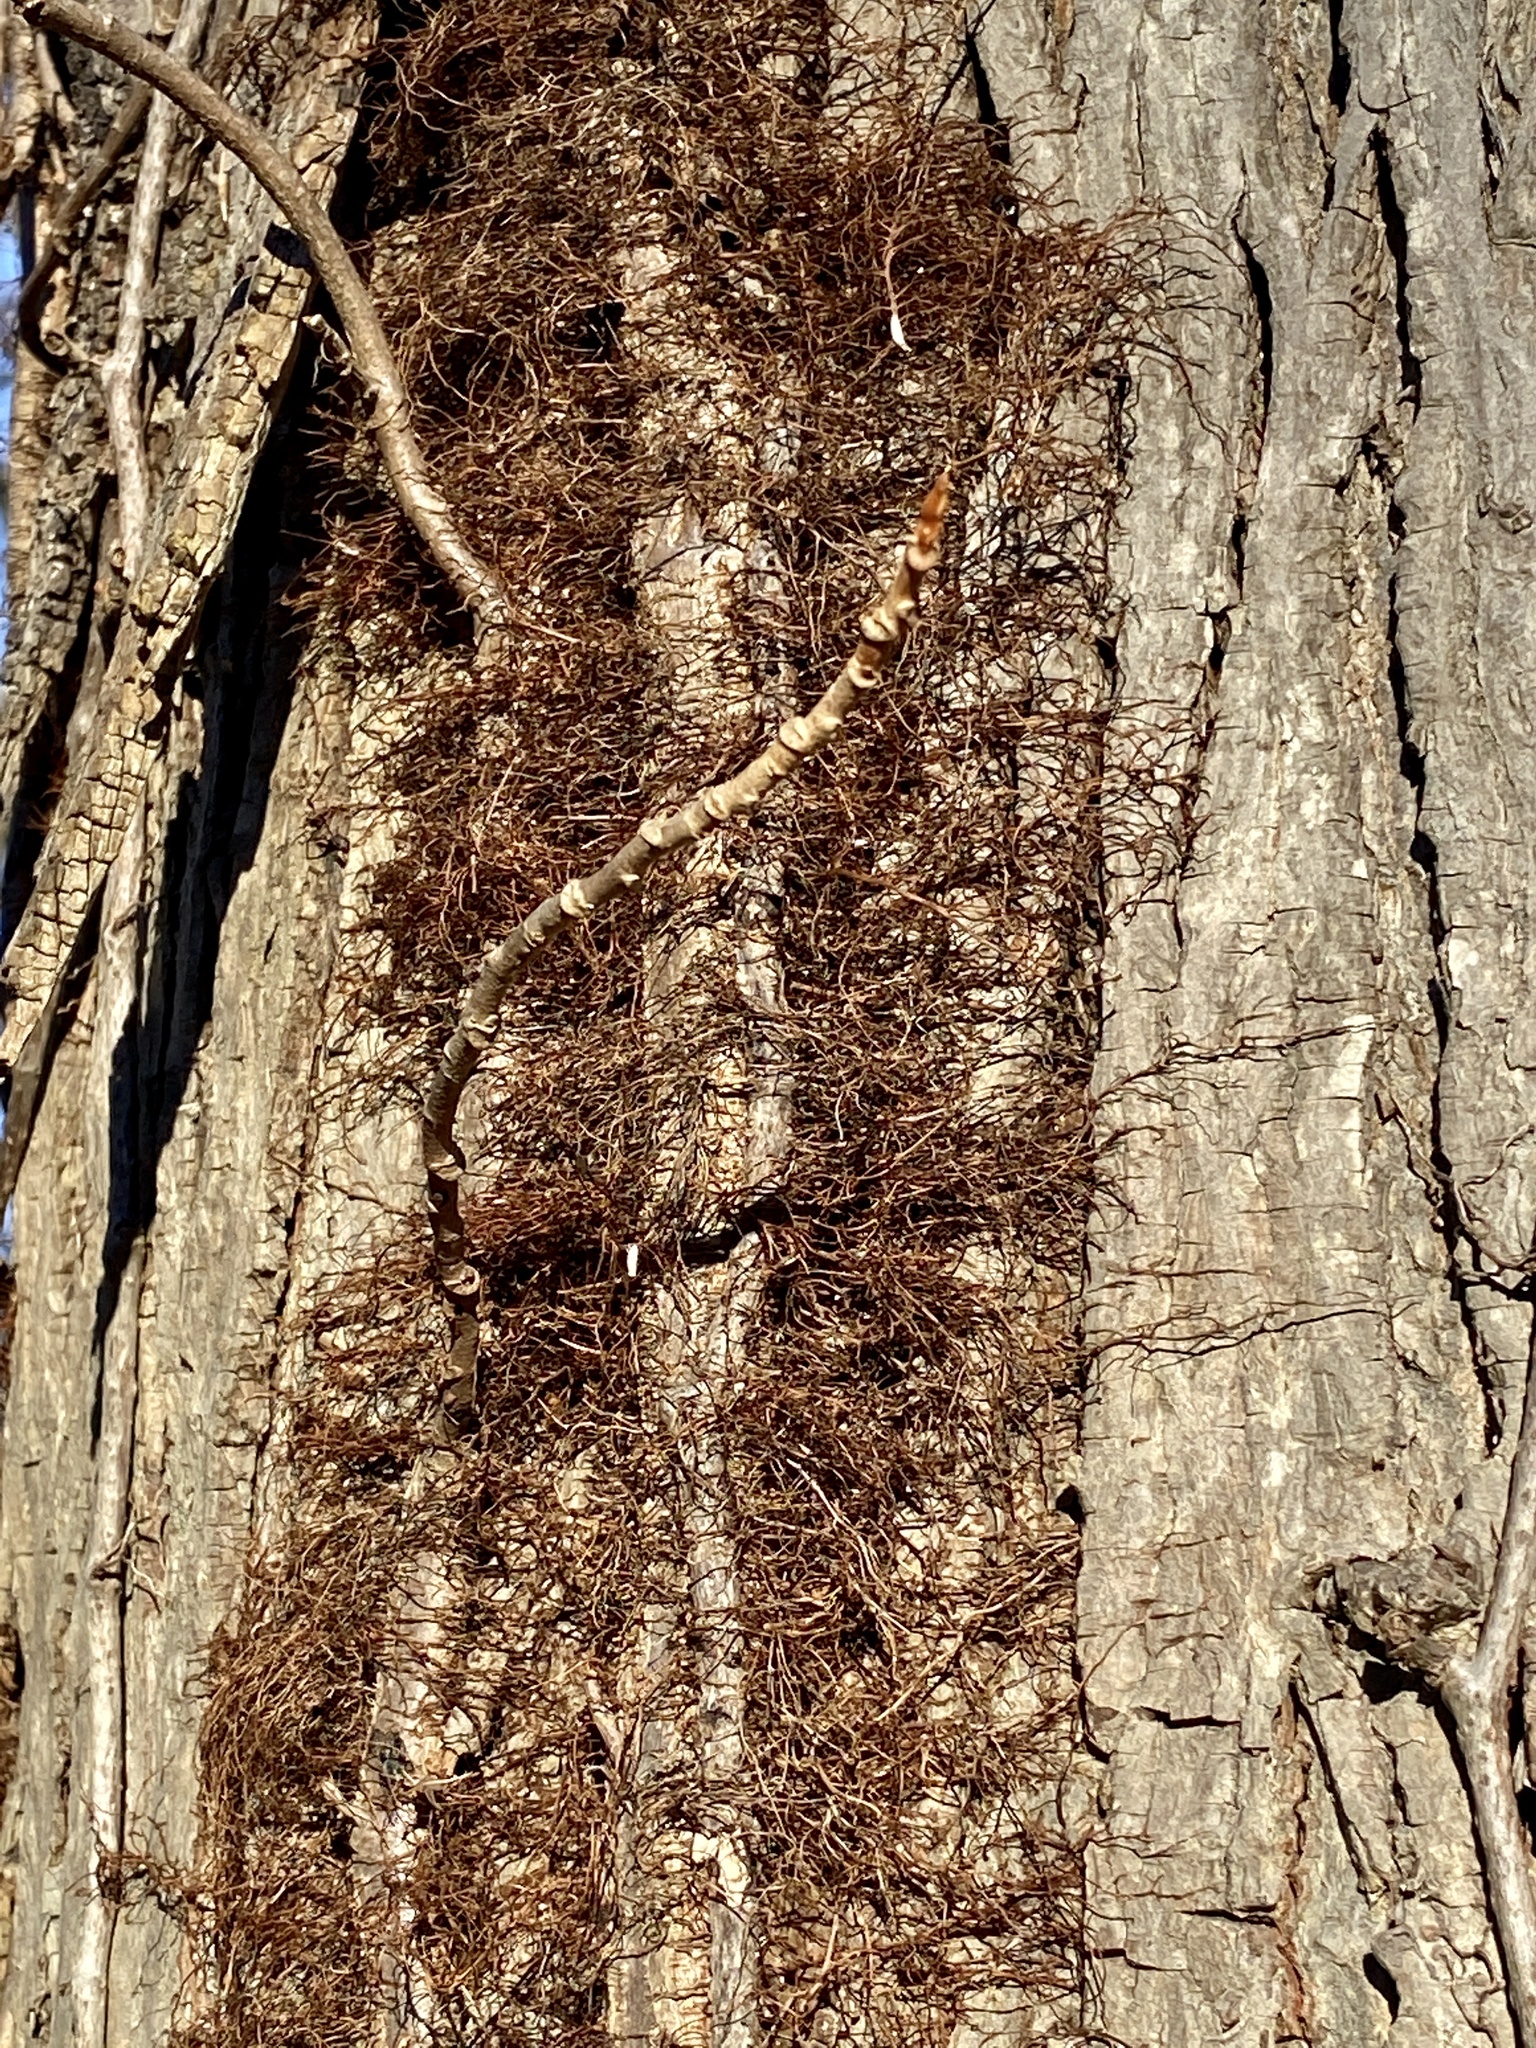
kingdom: Plantae
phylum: Tracheophyta
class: Magnoliopsida
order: Sapindales
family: Anacardiaceae
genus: Toxicodendron
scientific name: Toxicodendron radicans
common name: Poison ivy
